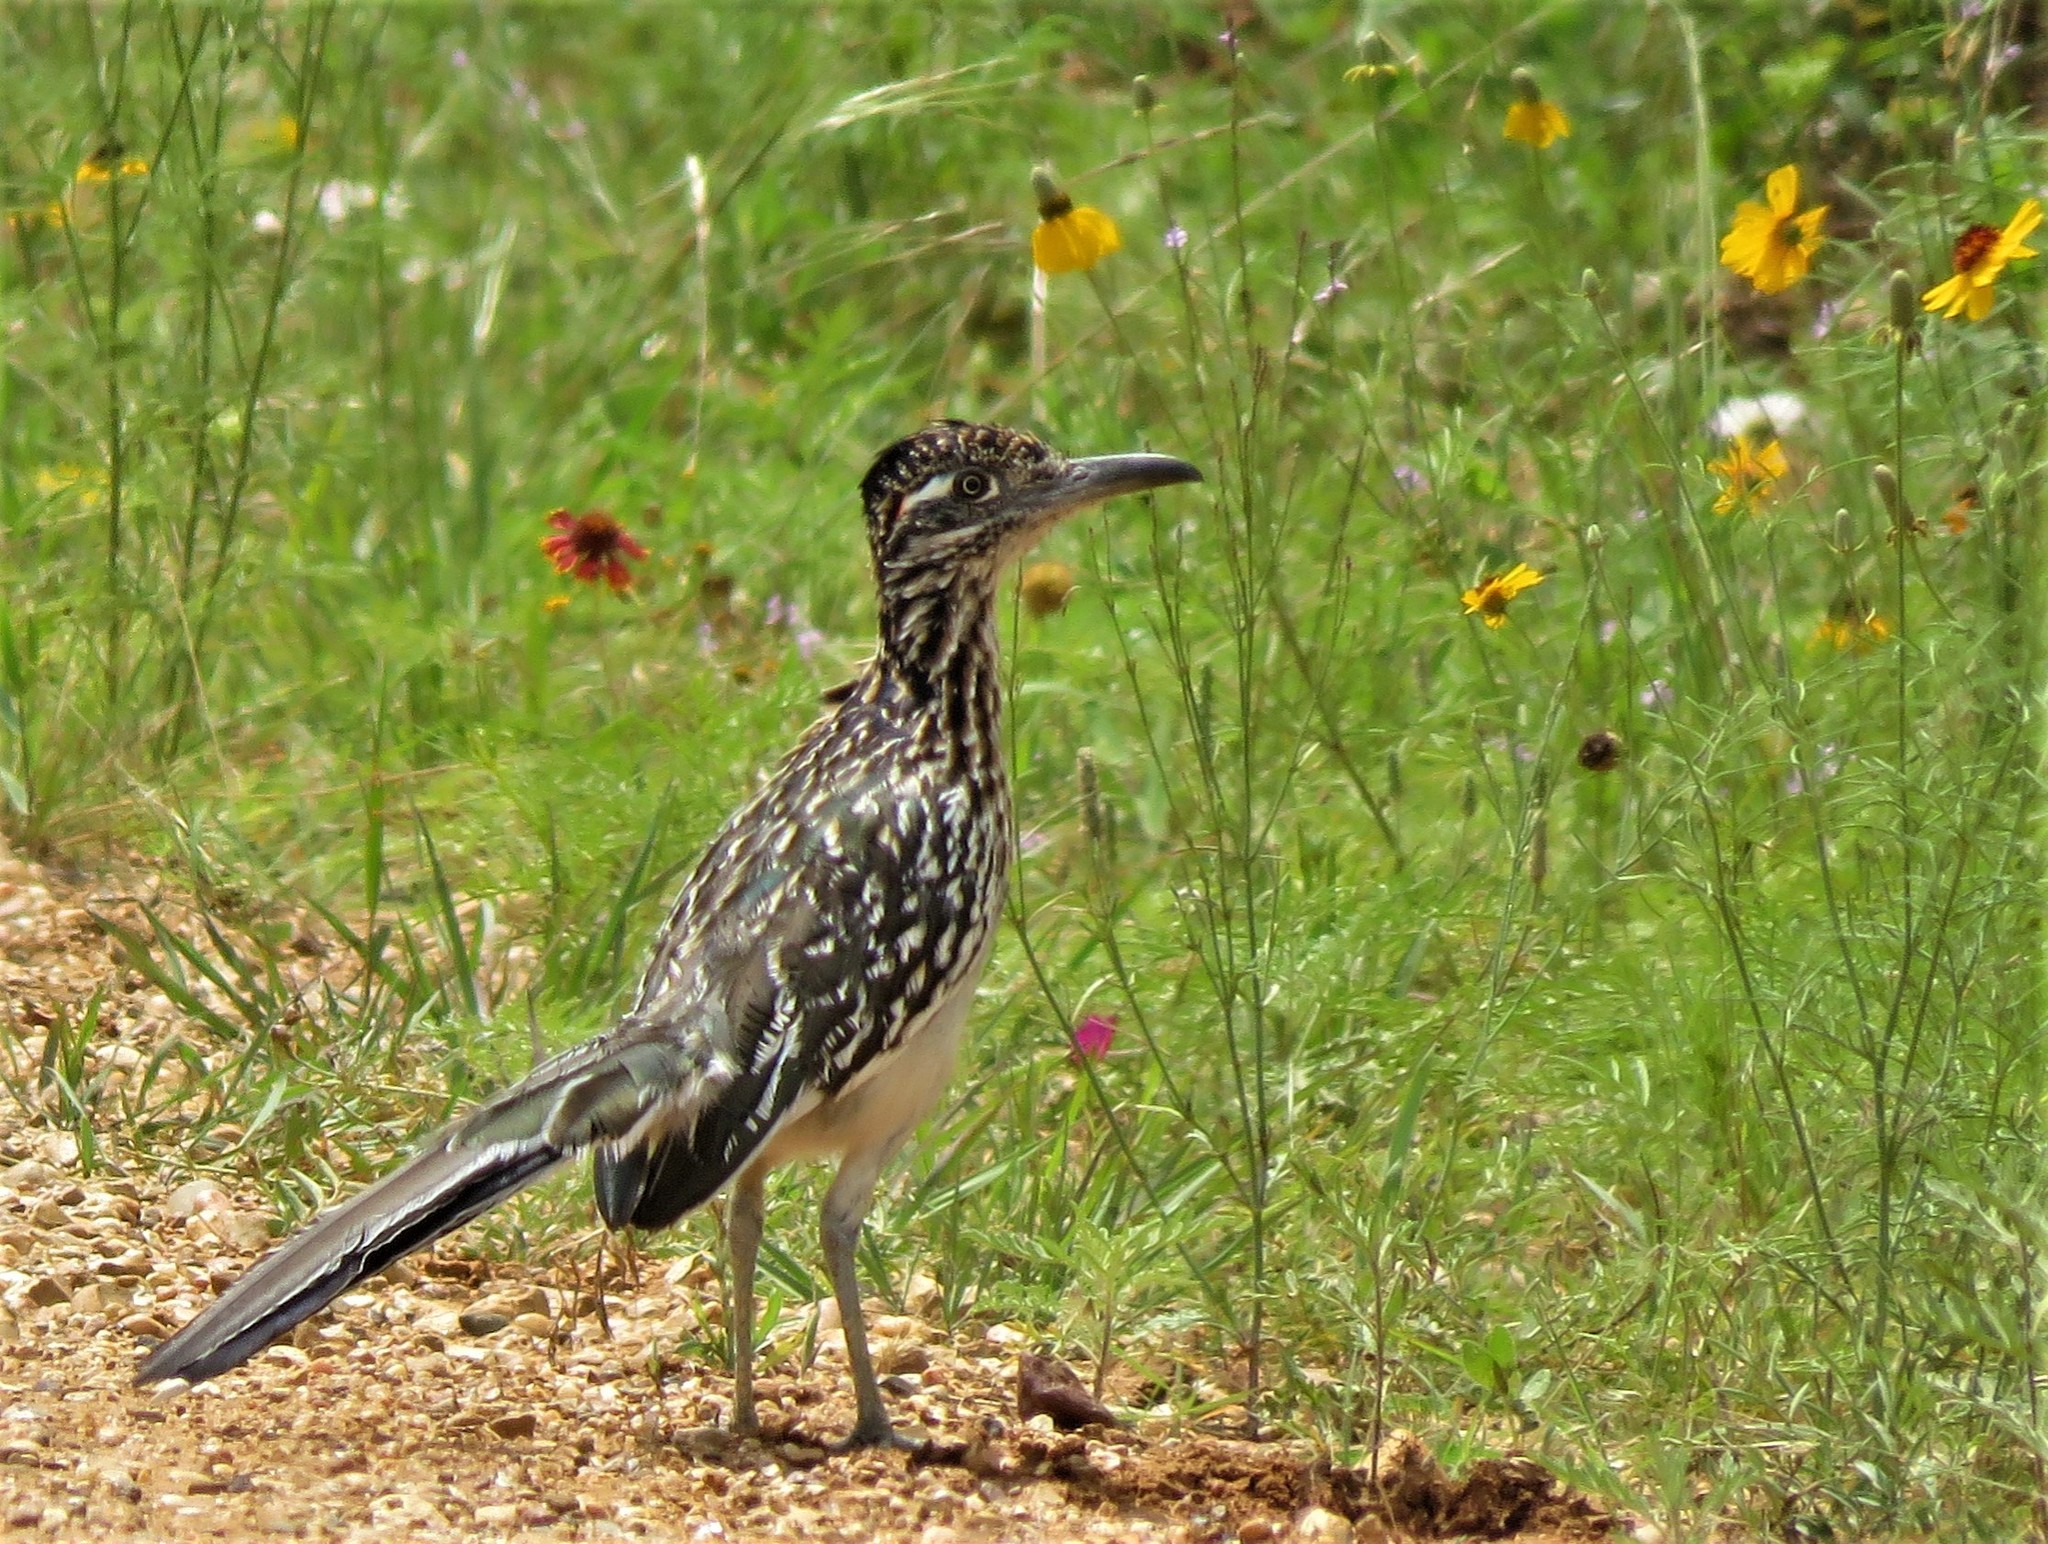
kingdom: Animalia
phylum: Chordata
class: Aves
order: Cuculiformes
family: Cuculidae
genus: Geococcyx
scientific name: Geococcyx californianus
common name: Greater roadrunner
